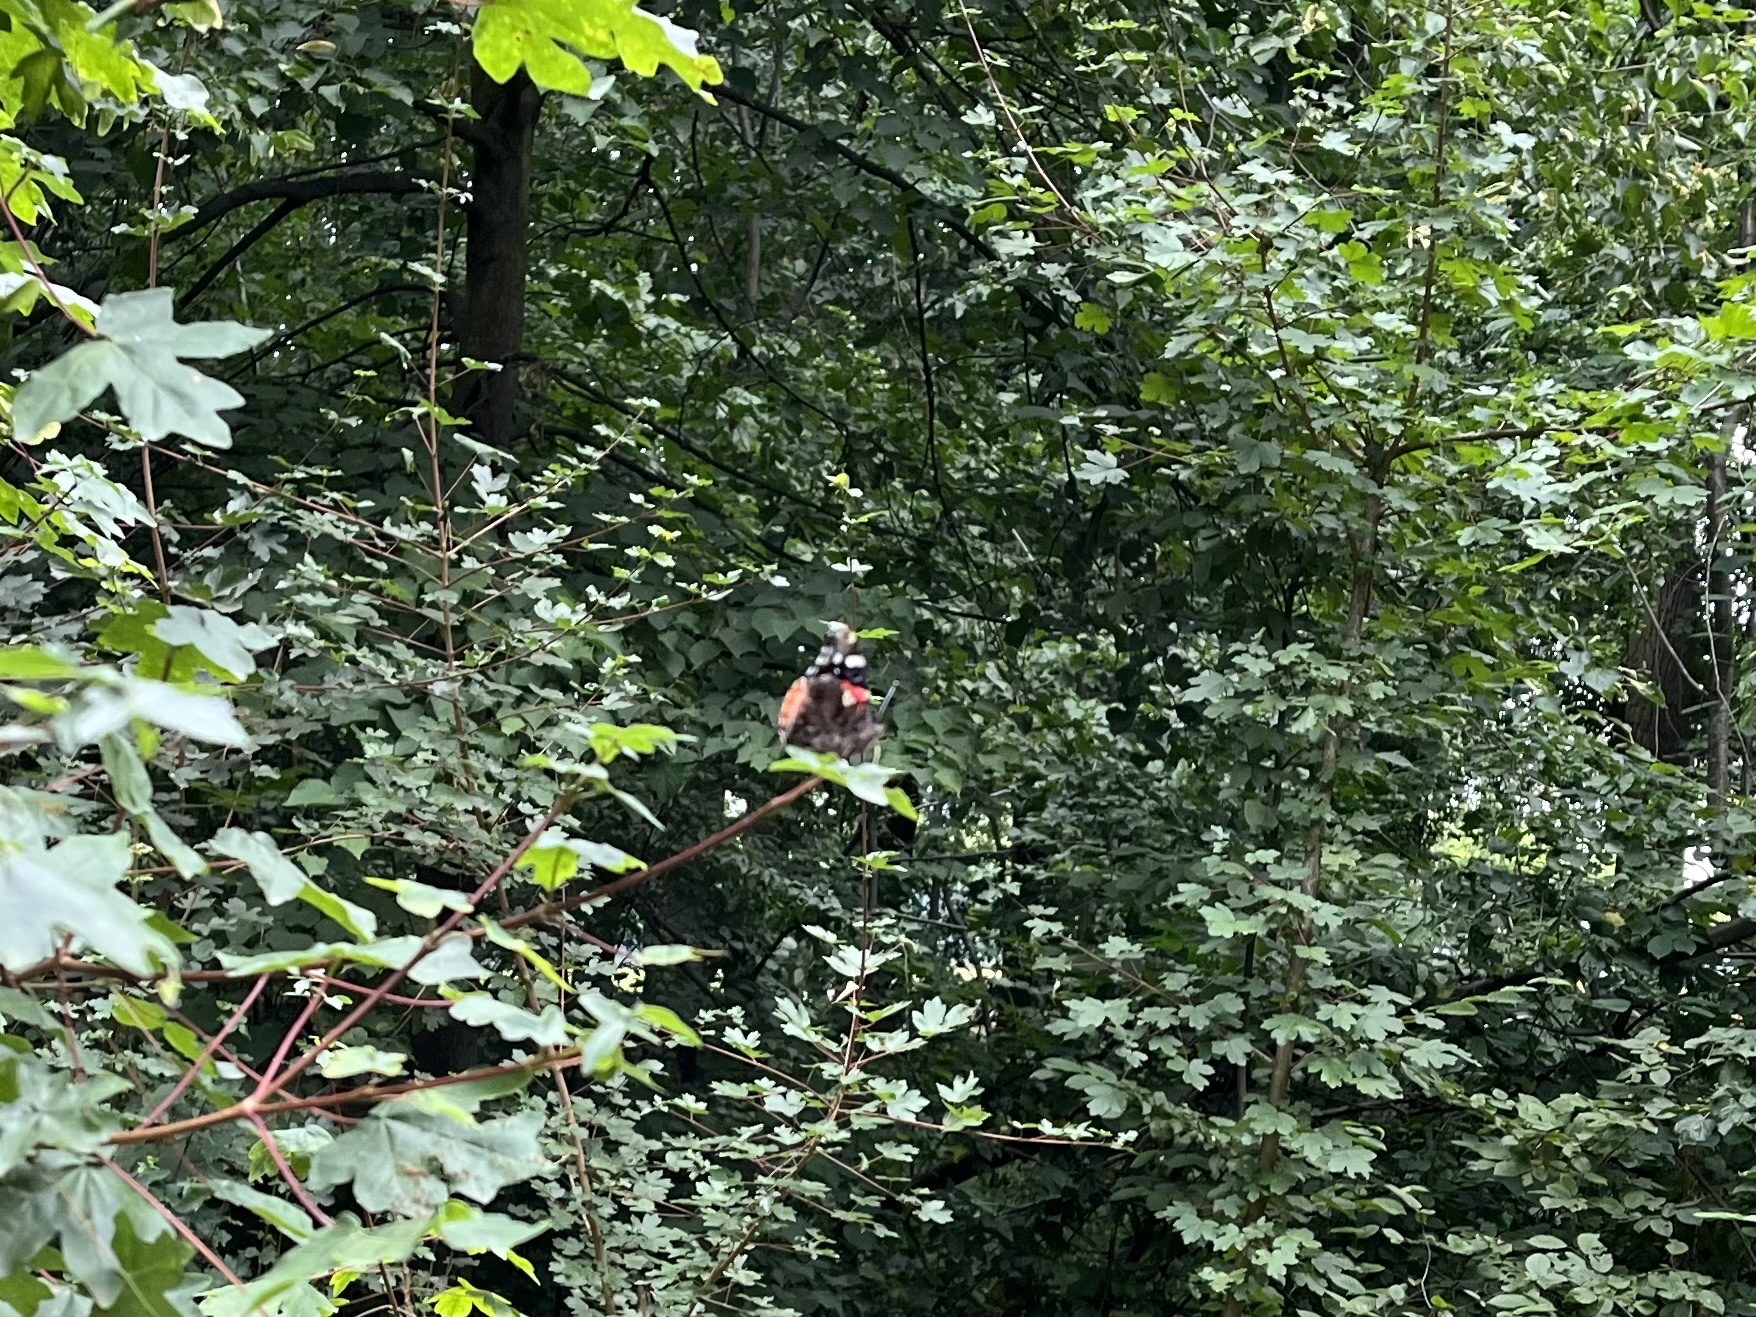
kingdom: Animalia
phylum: Arthropoda
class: Insecta
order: Lepidoptera
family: Nymphalidae
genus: Vanessa
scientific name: Vanessa atalanta
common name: Red admiral
